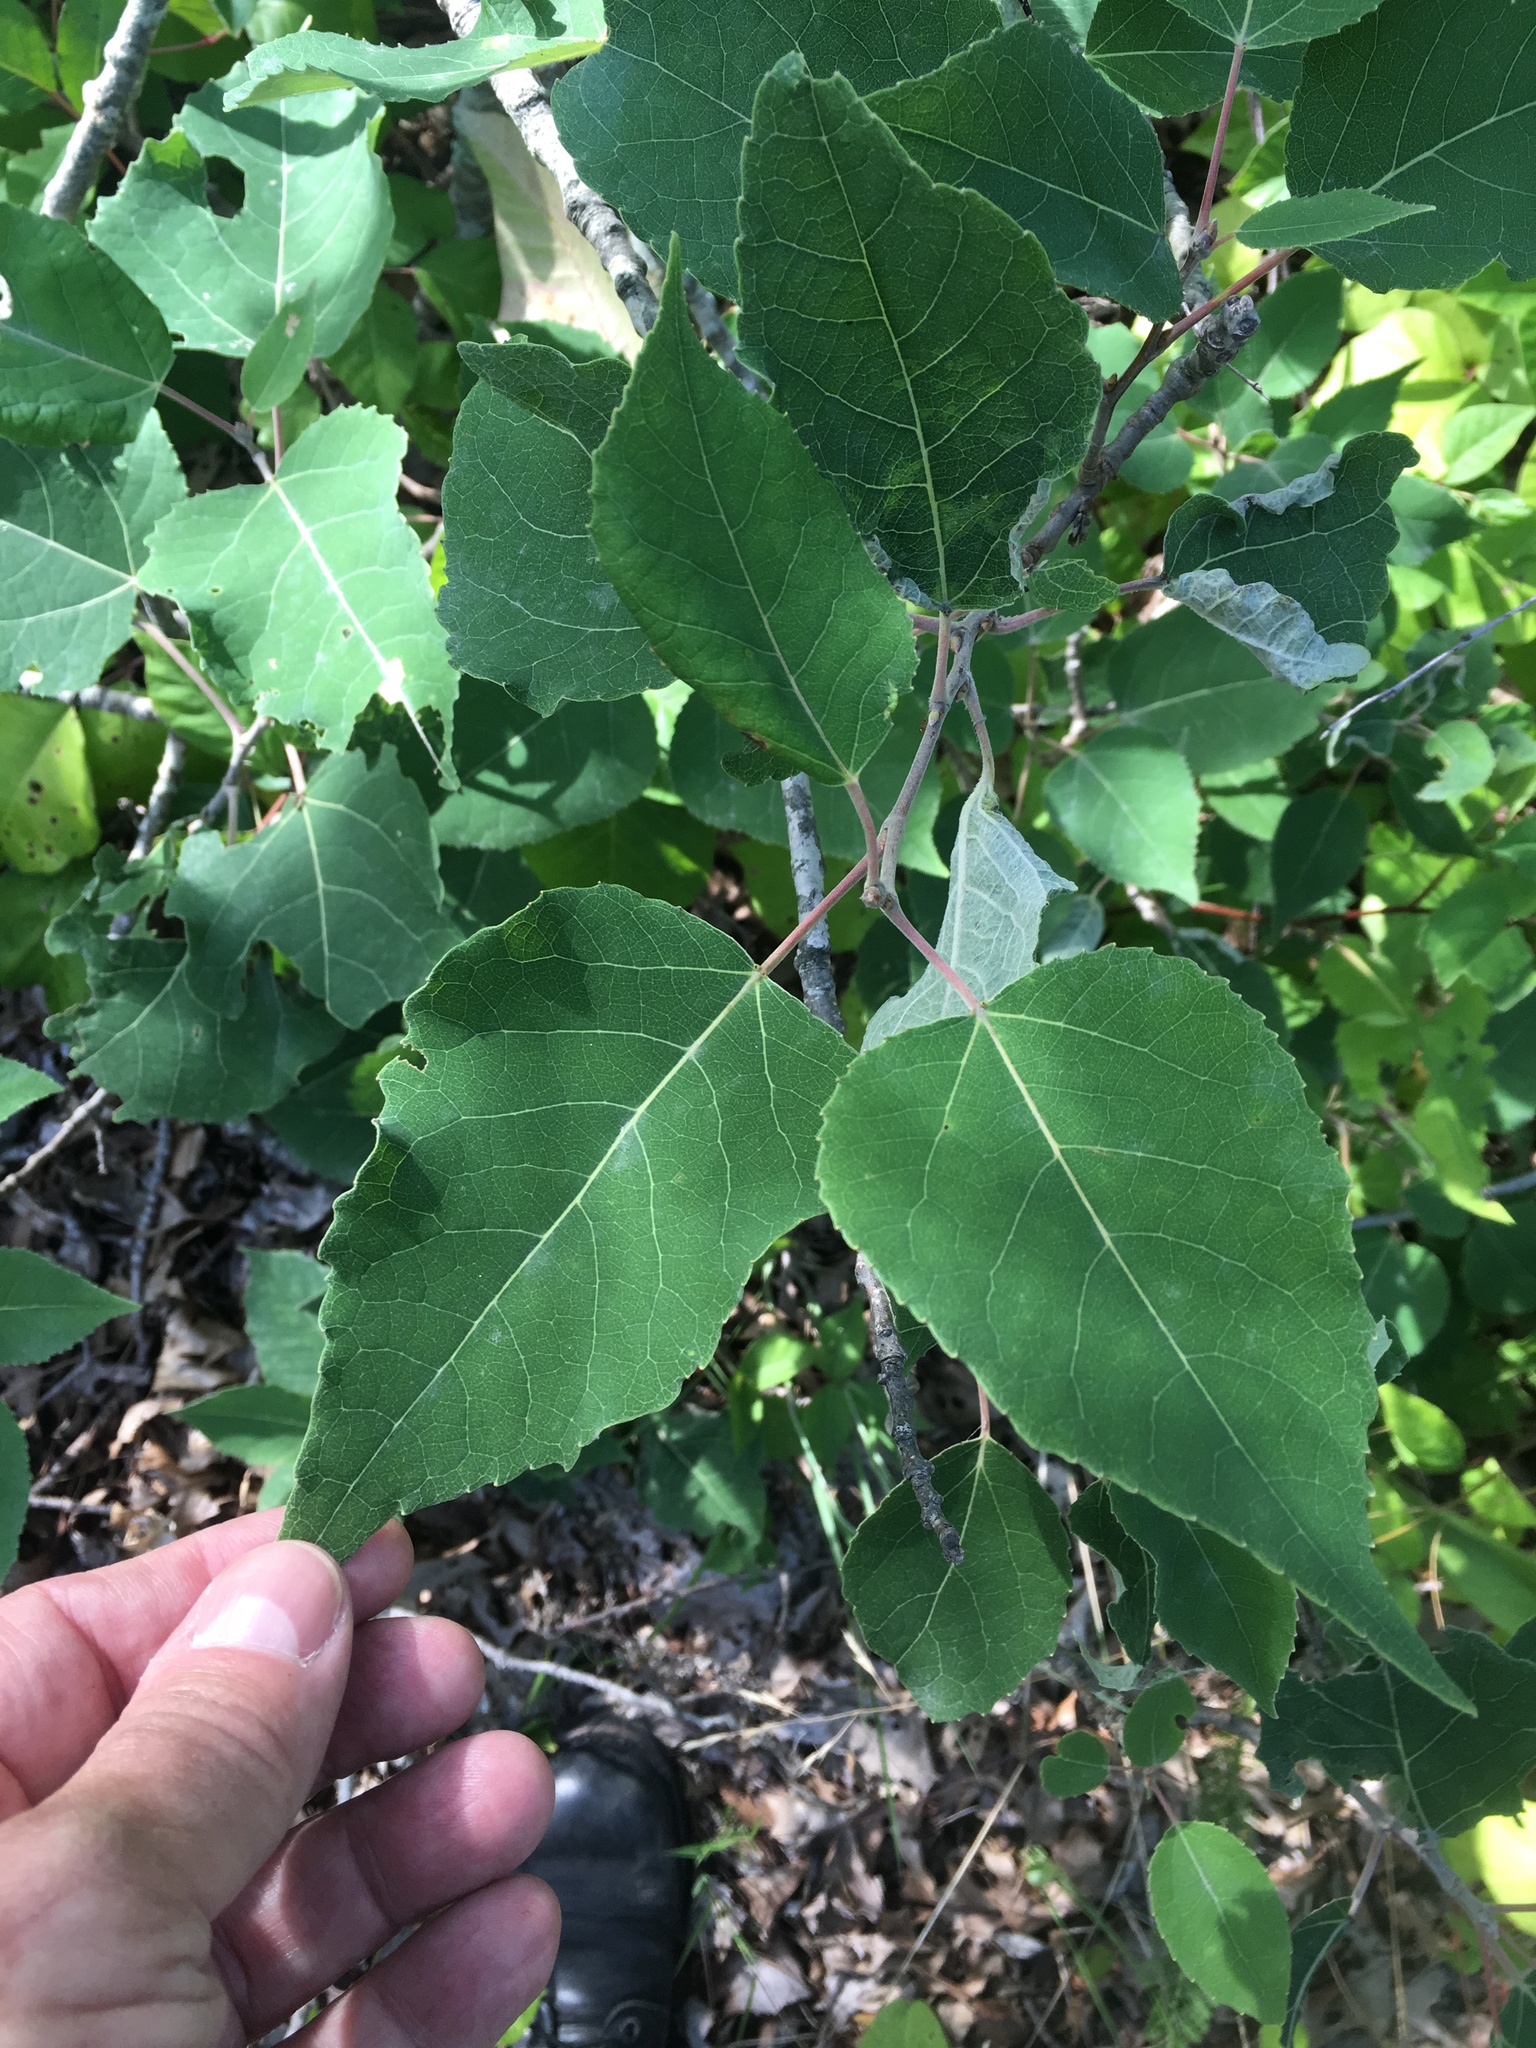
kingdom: Plantae
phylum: Tracheophyta
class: Magnoliopsida
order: Malpighiales
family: Salicaceae
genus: Populus
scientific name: Populus alba
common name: White poplar
